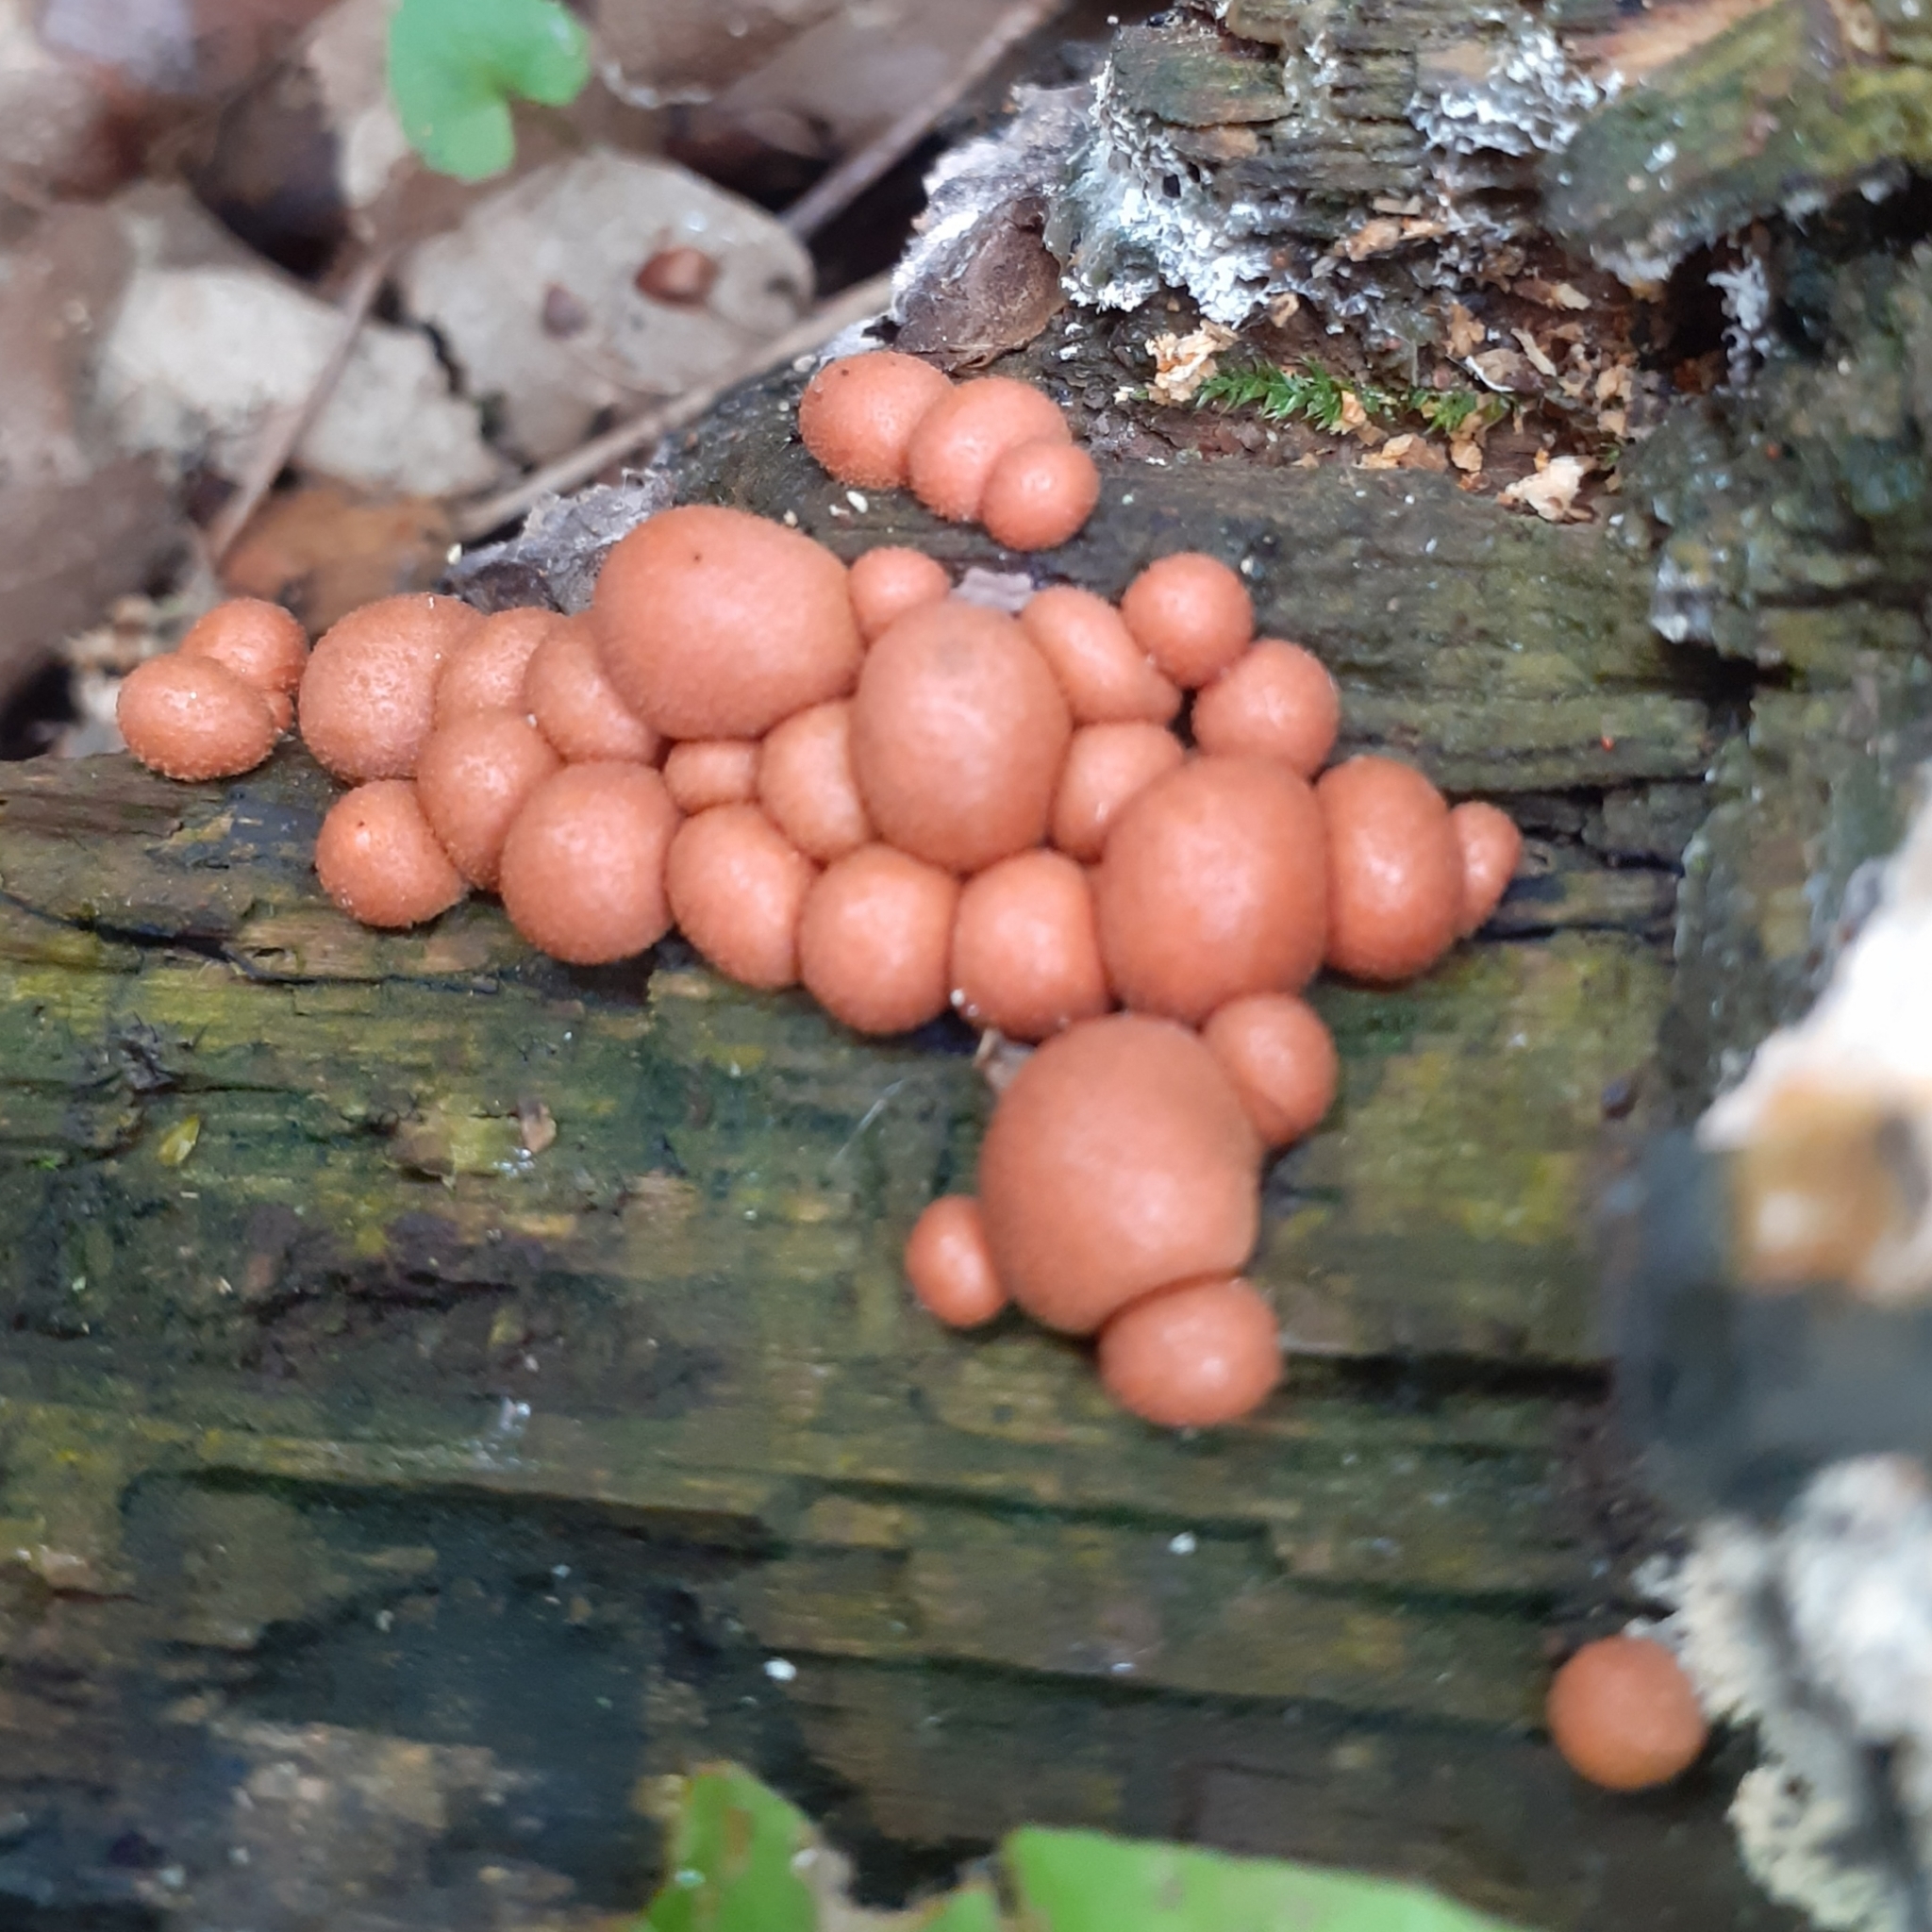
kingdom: Protozoa
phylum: Mycetozoa
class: Myxomycetes
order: Cribrariales
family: Tubiferaceae
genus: Lycogala
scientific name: Lycogala epidendrum
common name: Wolf's milk
